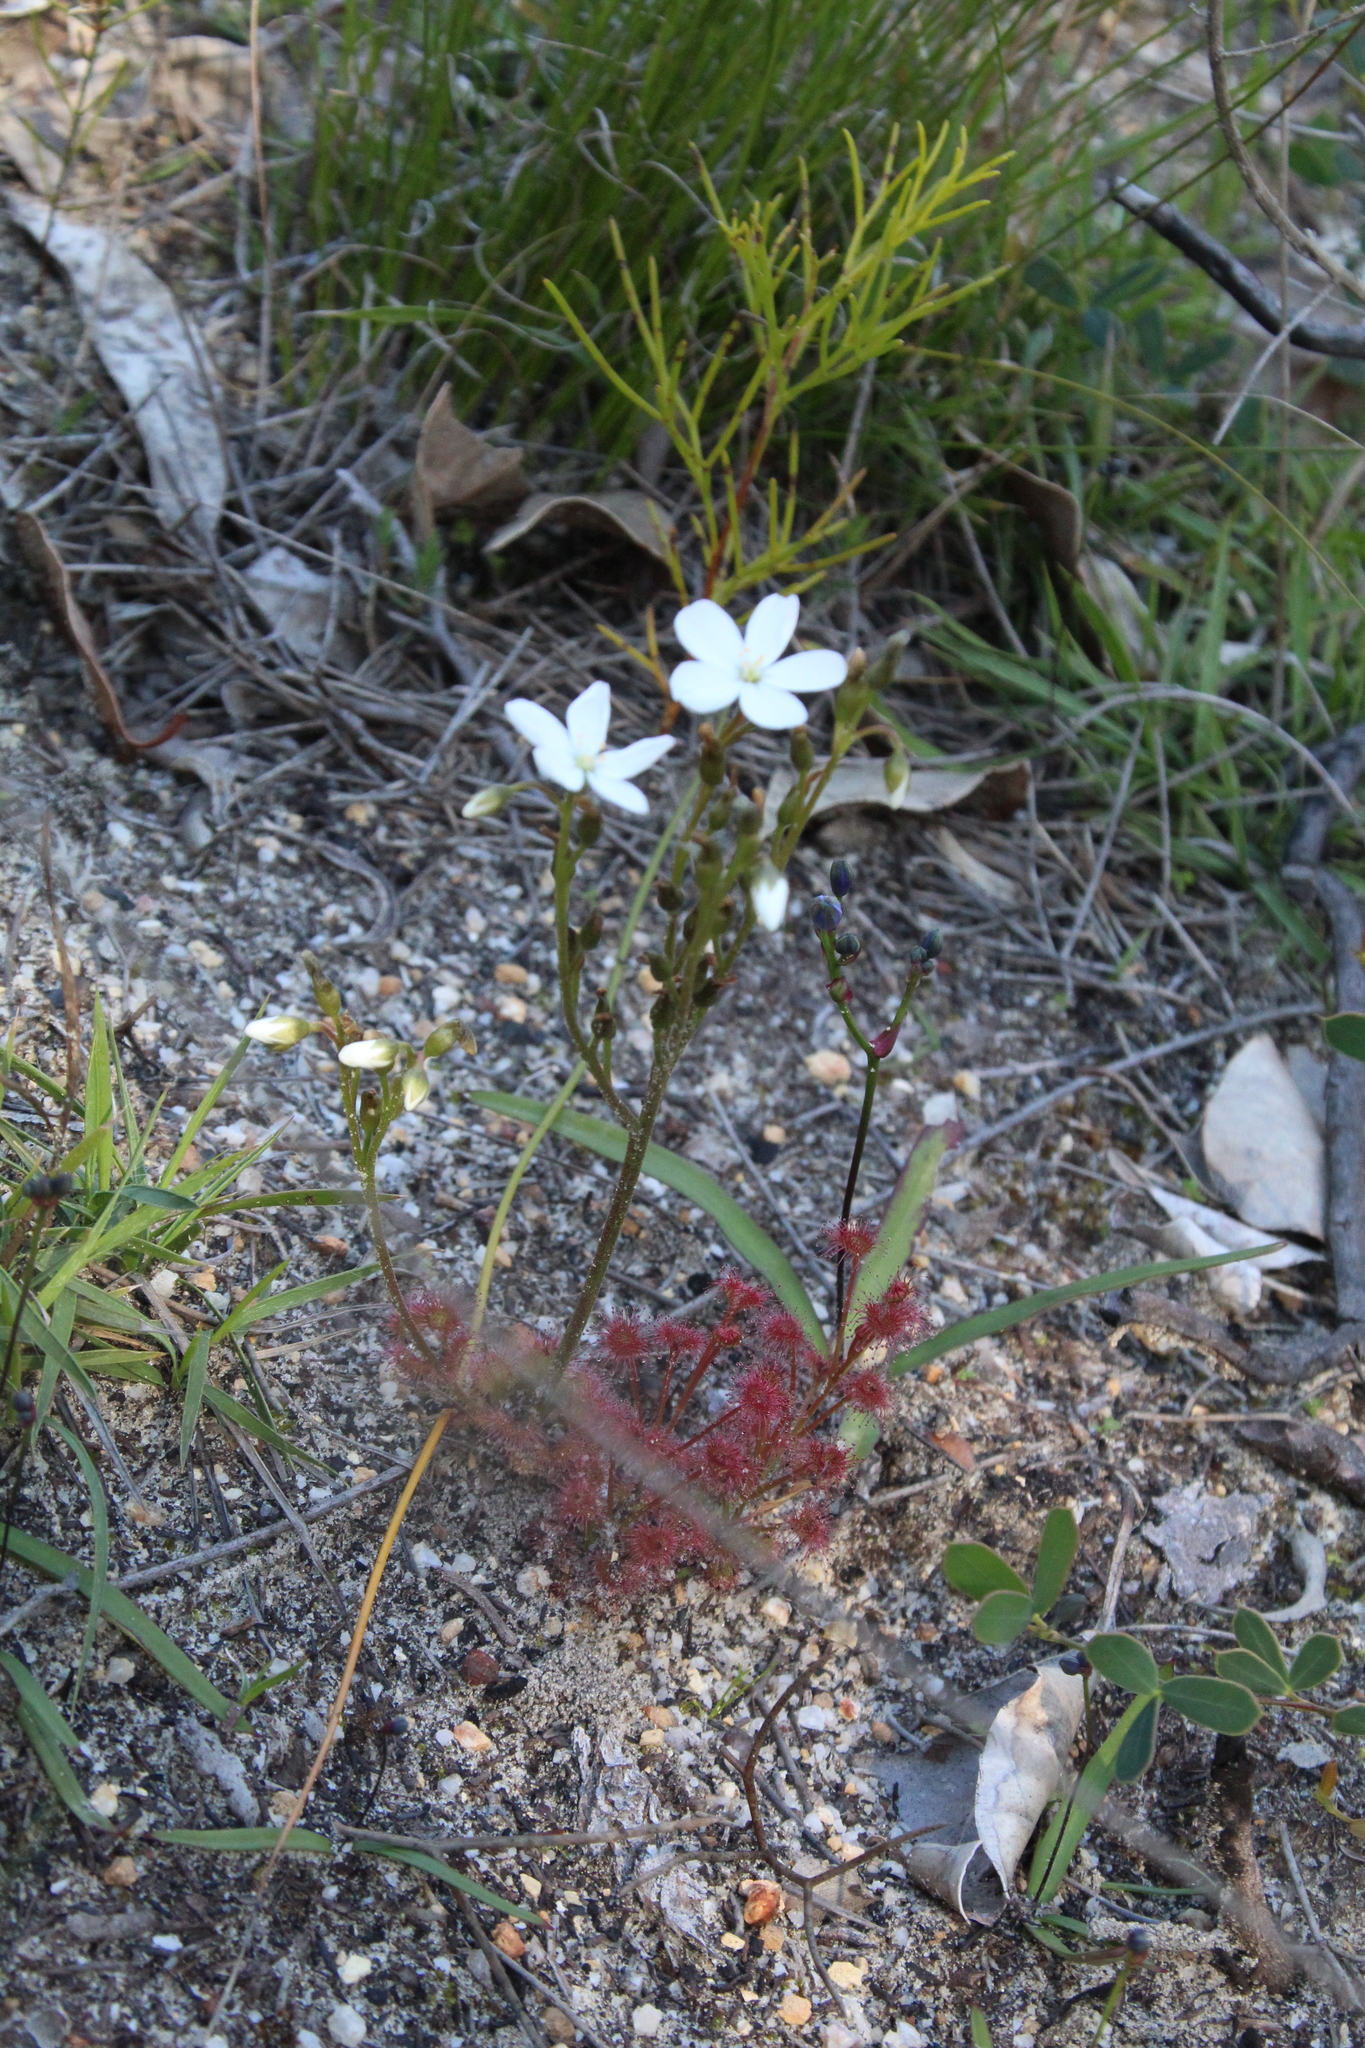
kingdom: Plantae
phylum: Tracheophyta
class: Magnoliopsida
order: Caryophyllales
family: Droseraceae
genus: Drosera
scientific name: Drosera stolonifera
